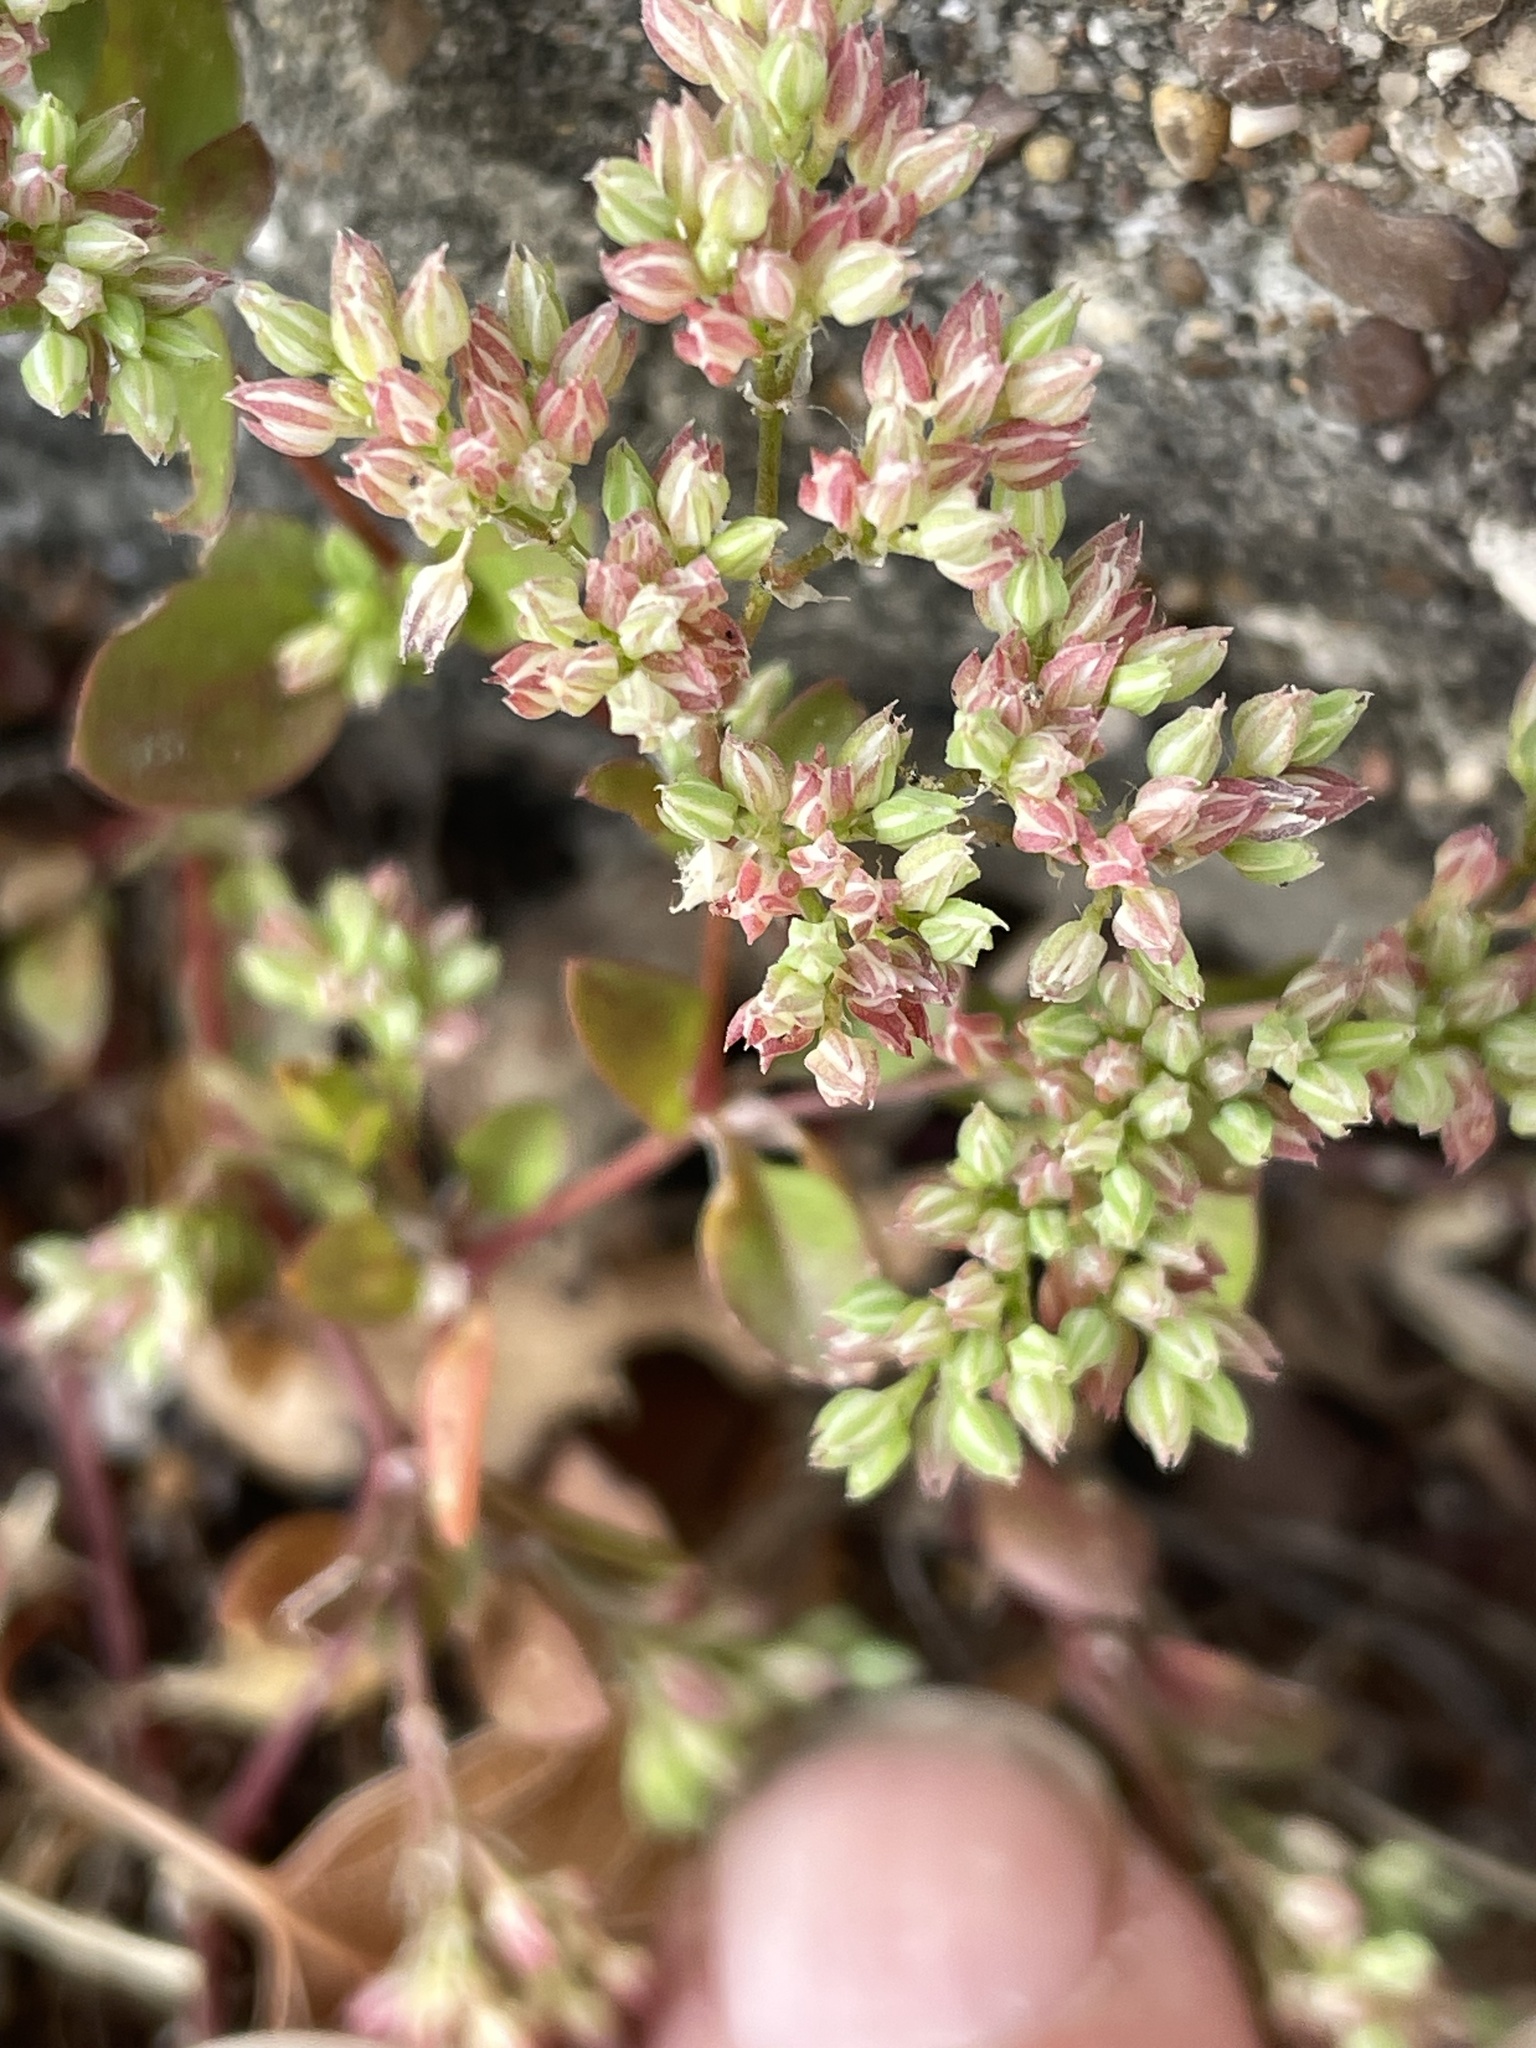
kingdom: Plantae
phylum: Tracheophyta
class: Magnoliopsida
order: Caryophyllales
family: Caryophyllaceae
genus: Polycarpon
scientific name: Polycarpon tetraphyllum
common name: Four-leaved all-seed
